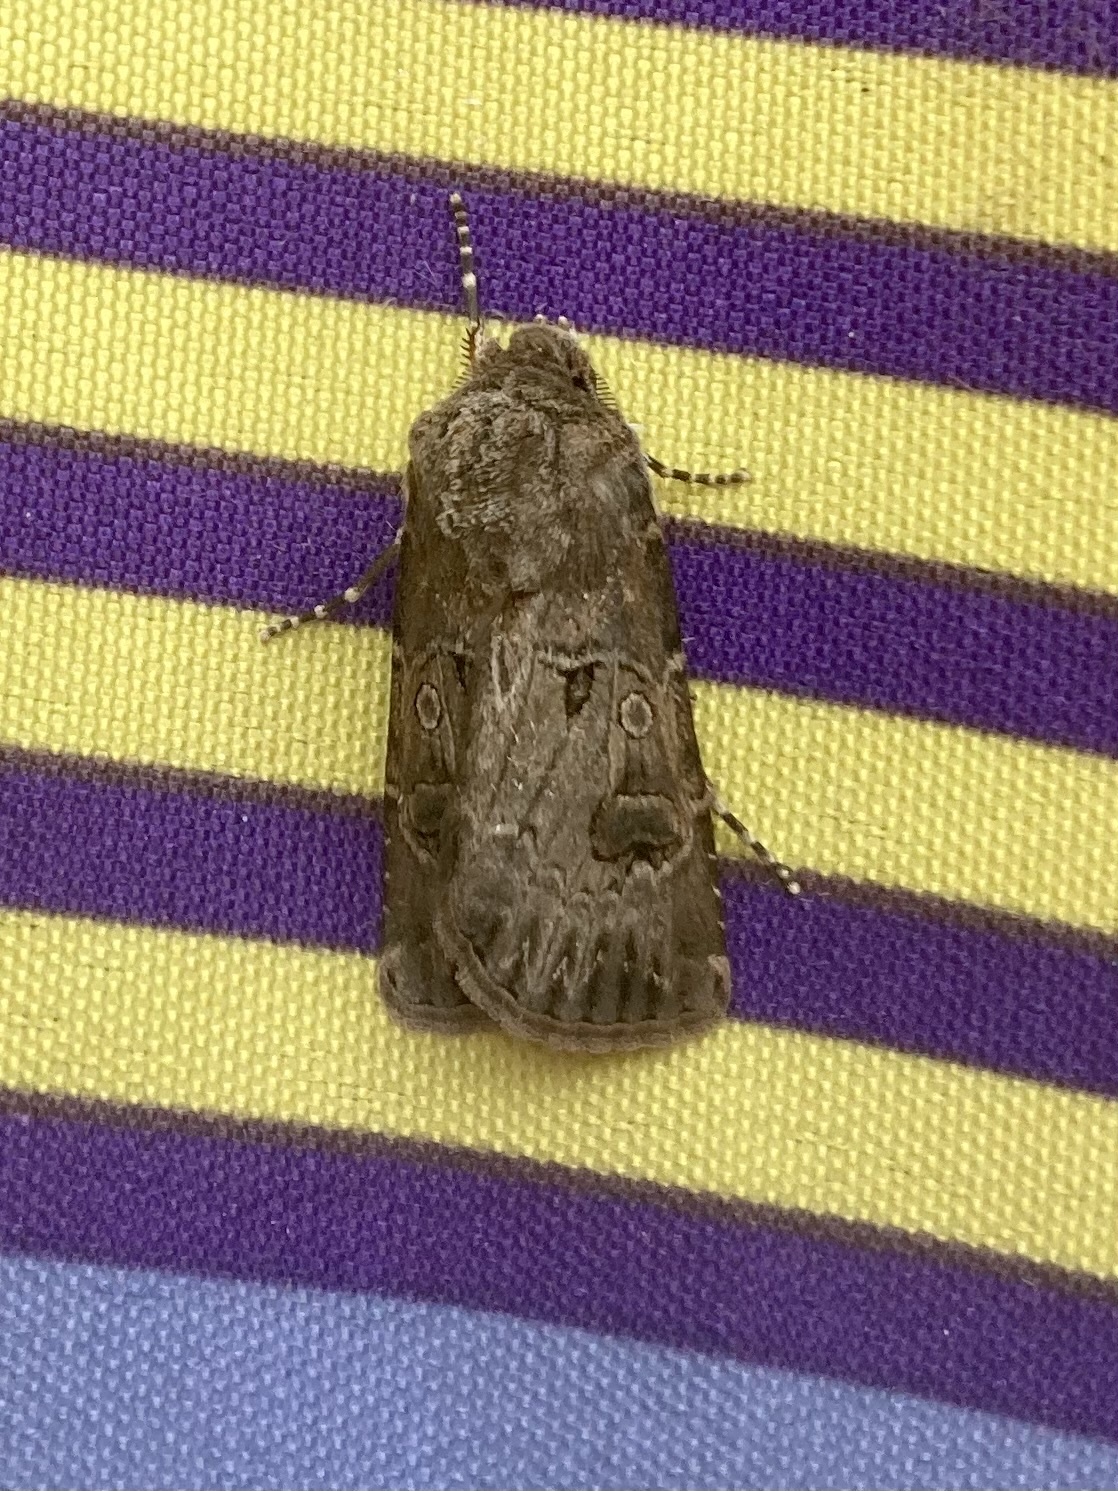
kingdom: Animalia
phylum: Arthropoda
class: Insecta
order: Lepidoptera
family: Noctuidae
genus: Agrotis
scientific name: Agrotis bigramma
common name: Great dart
